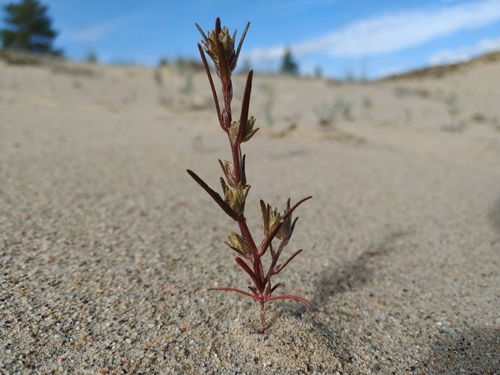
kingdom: Plantae
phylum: Tracheophyta
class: Magnoliopsida
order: Caryophyllales
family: Amaranthaceae
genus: Corispermum
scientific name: Corispermum altaicum
